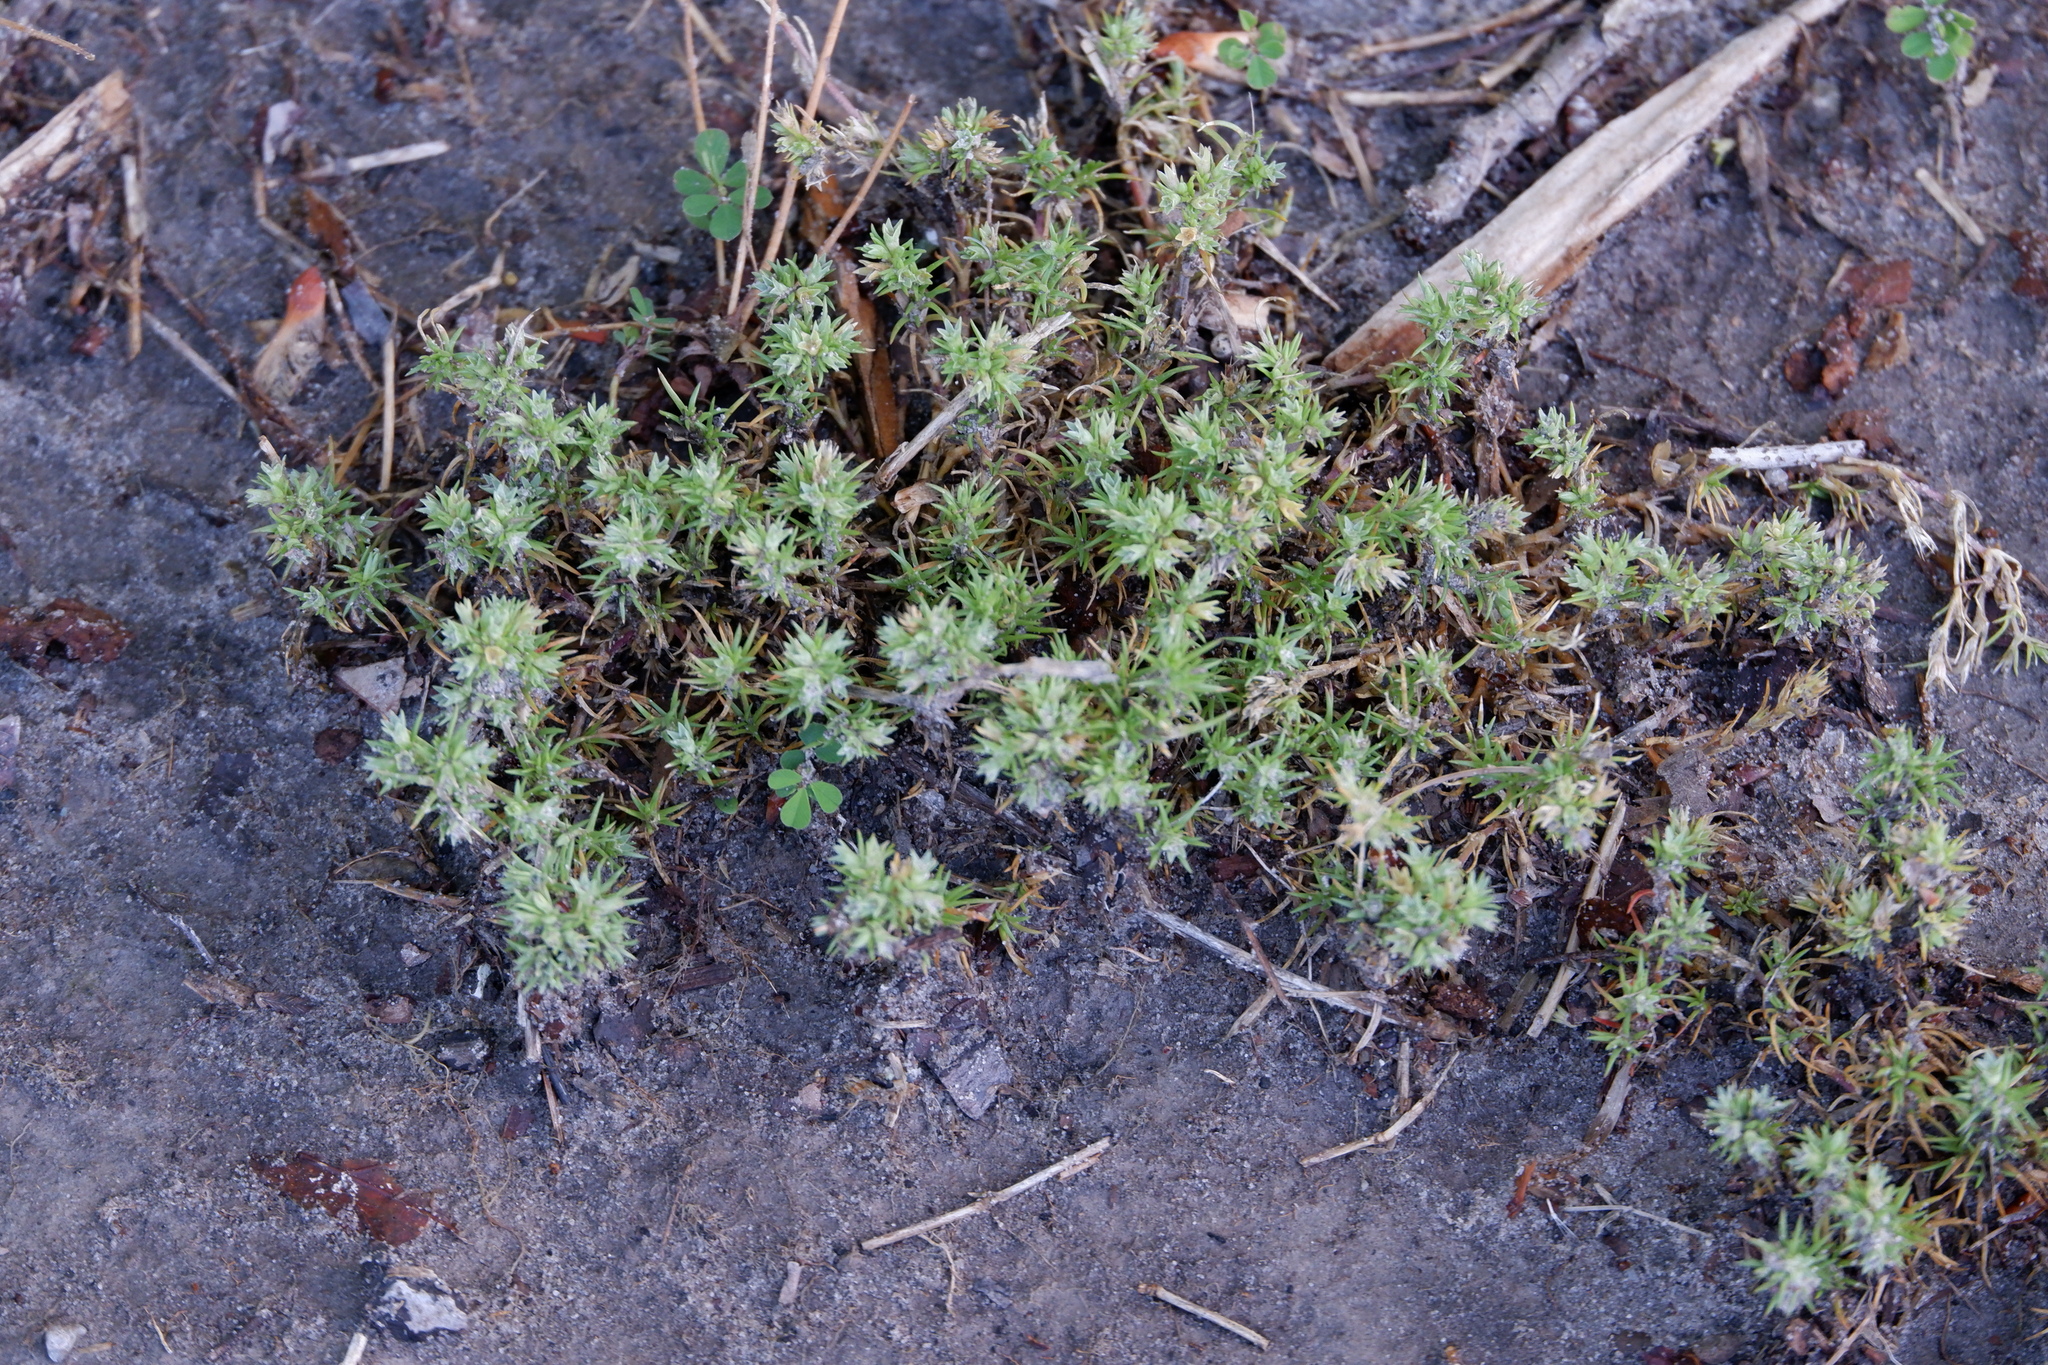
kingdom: Plantae
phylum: Tracheophyta
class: Magnoliopsida
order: Caryophyllales
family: Caryophyllaceae
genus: Scleranthus
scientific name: Scleranthus annuus
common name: Annual knawel
